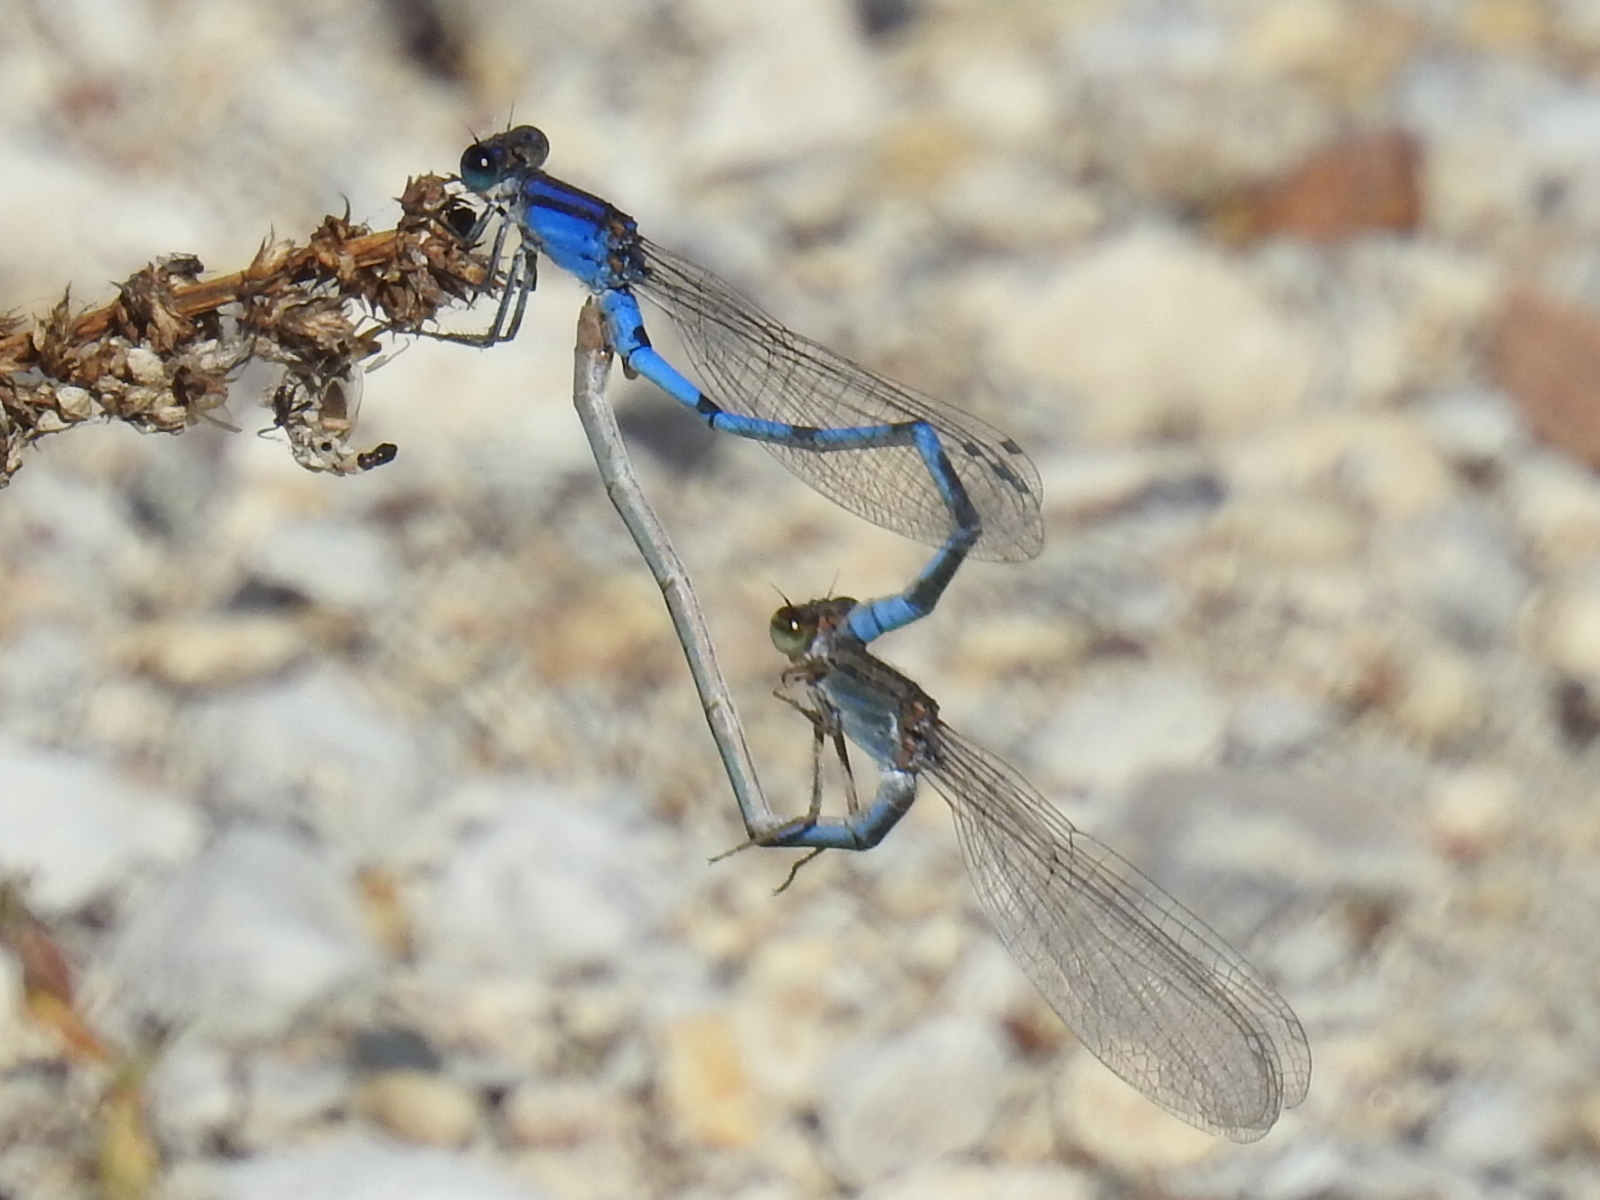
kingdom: Animalia
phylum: Arthropoda
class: Insecta
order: Odonata
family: Coenagrionidae
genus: Enallagma
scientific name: Enallagma civile
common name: Damselfly
